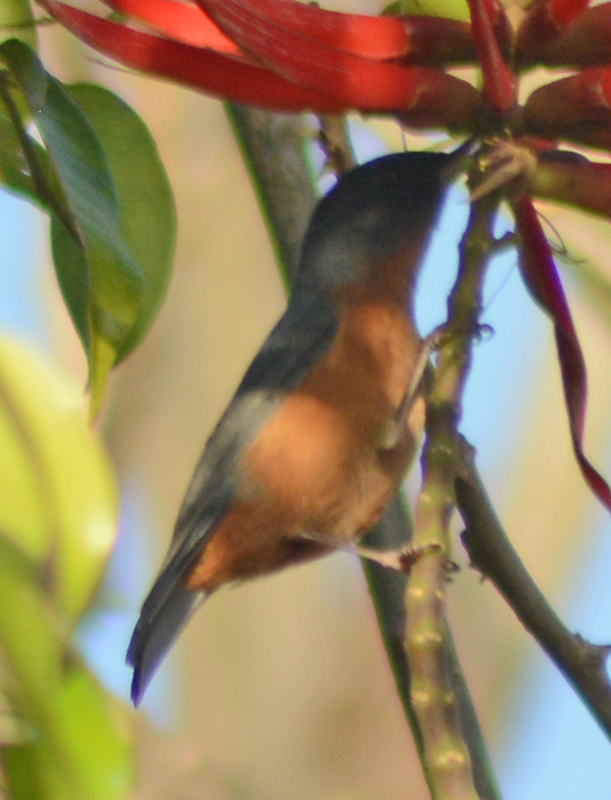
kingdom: Animalia
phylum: Chordata
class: Aves
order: Passeriformes
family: Thraupidae
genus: Diglossa
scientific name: Diglossa baritula
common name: Cinnamon-bellied flowerpiercer
